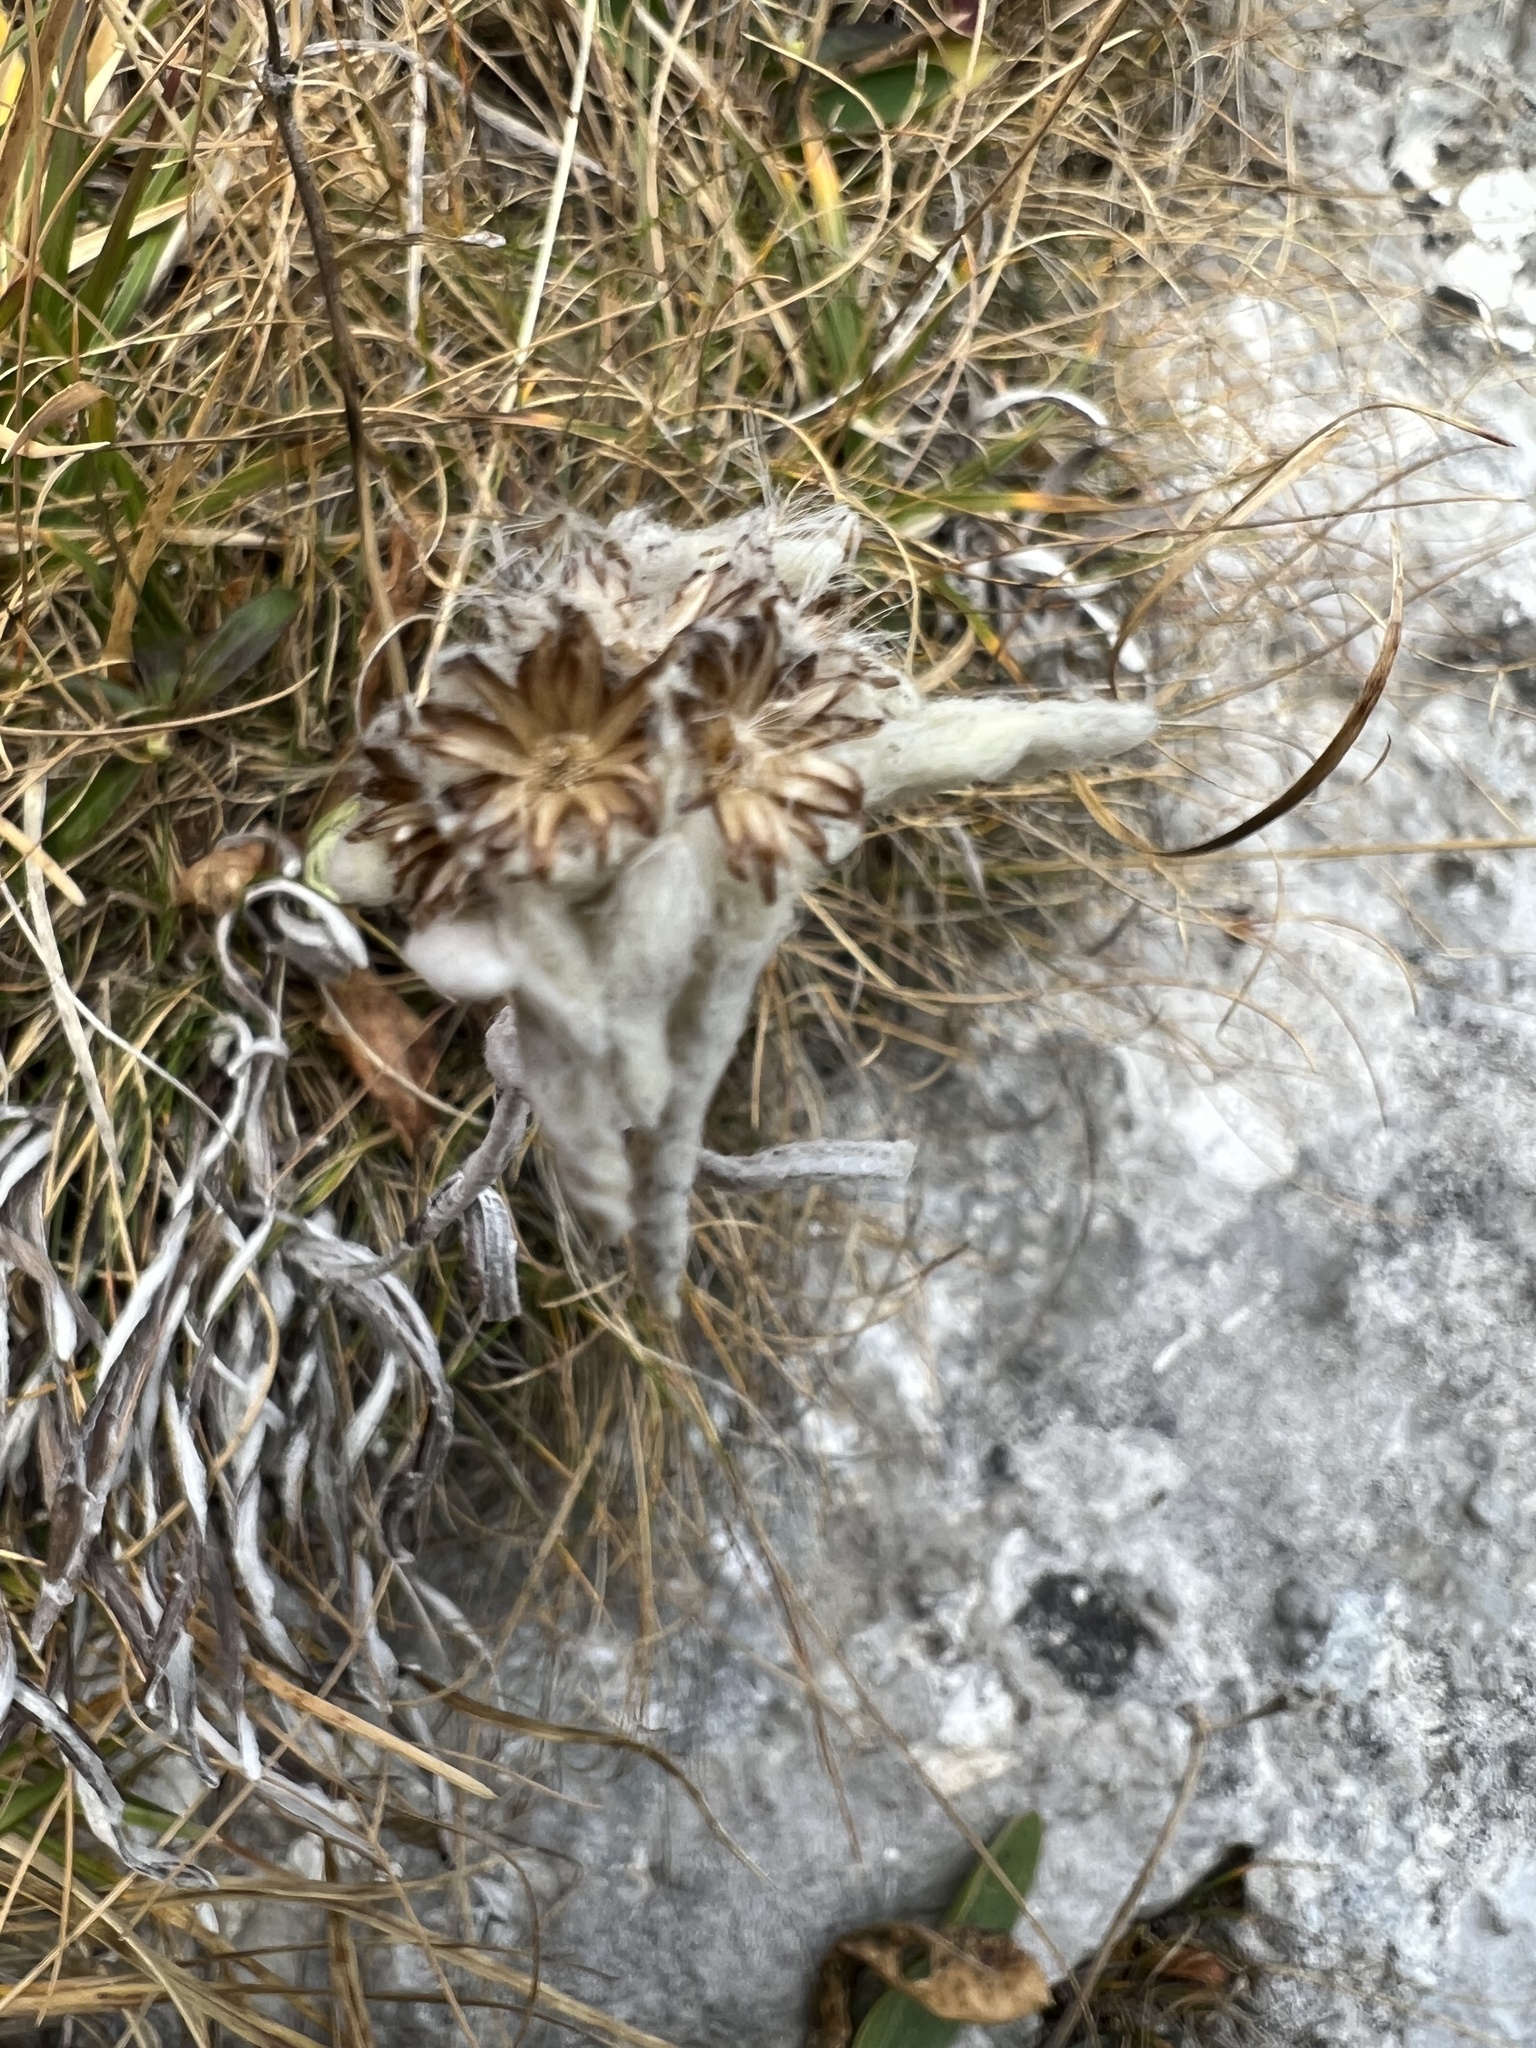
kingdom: Plantae
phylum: Tracheophyta
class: Magnoliopsida
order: Asterales
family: Asteraceae
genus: Leontopodium
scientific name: Leontopodium nivale
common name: Edelweiss
